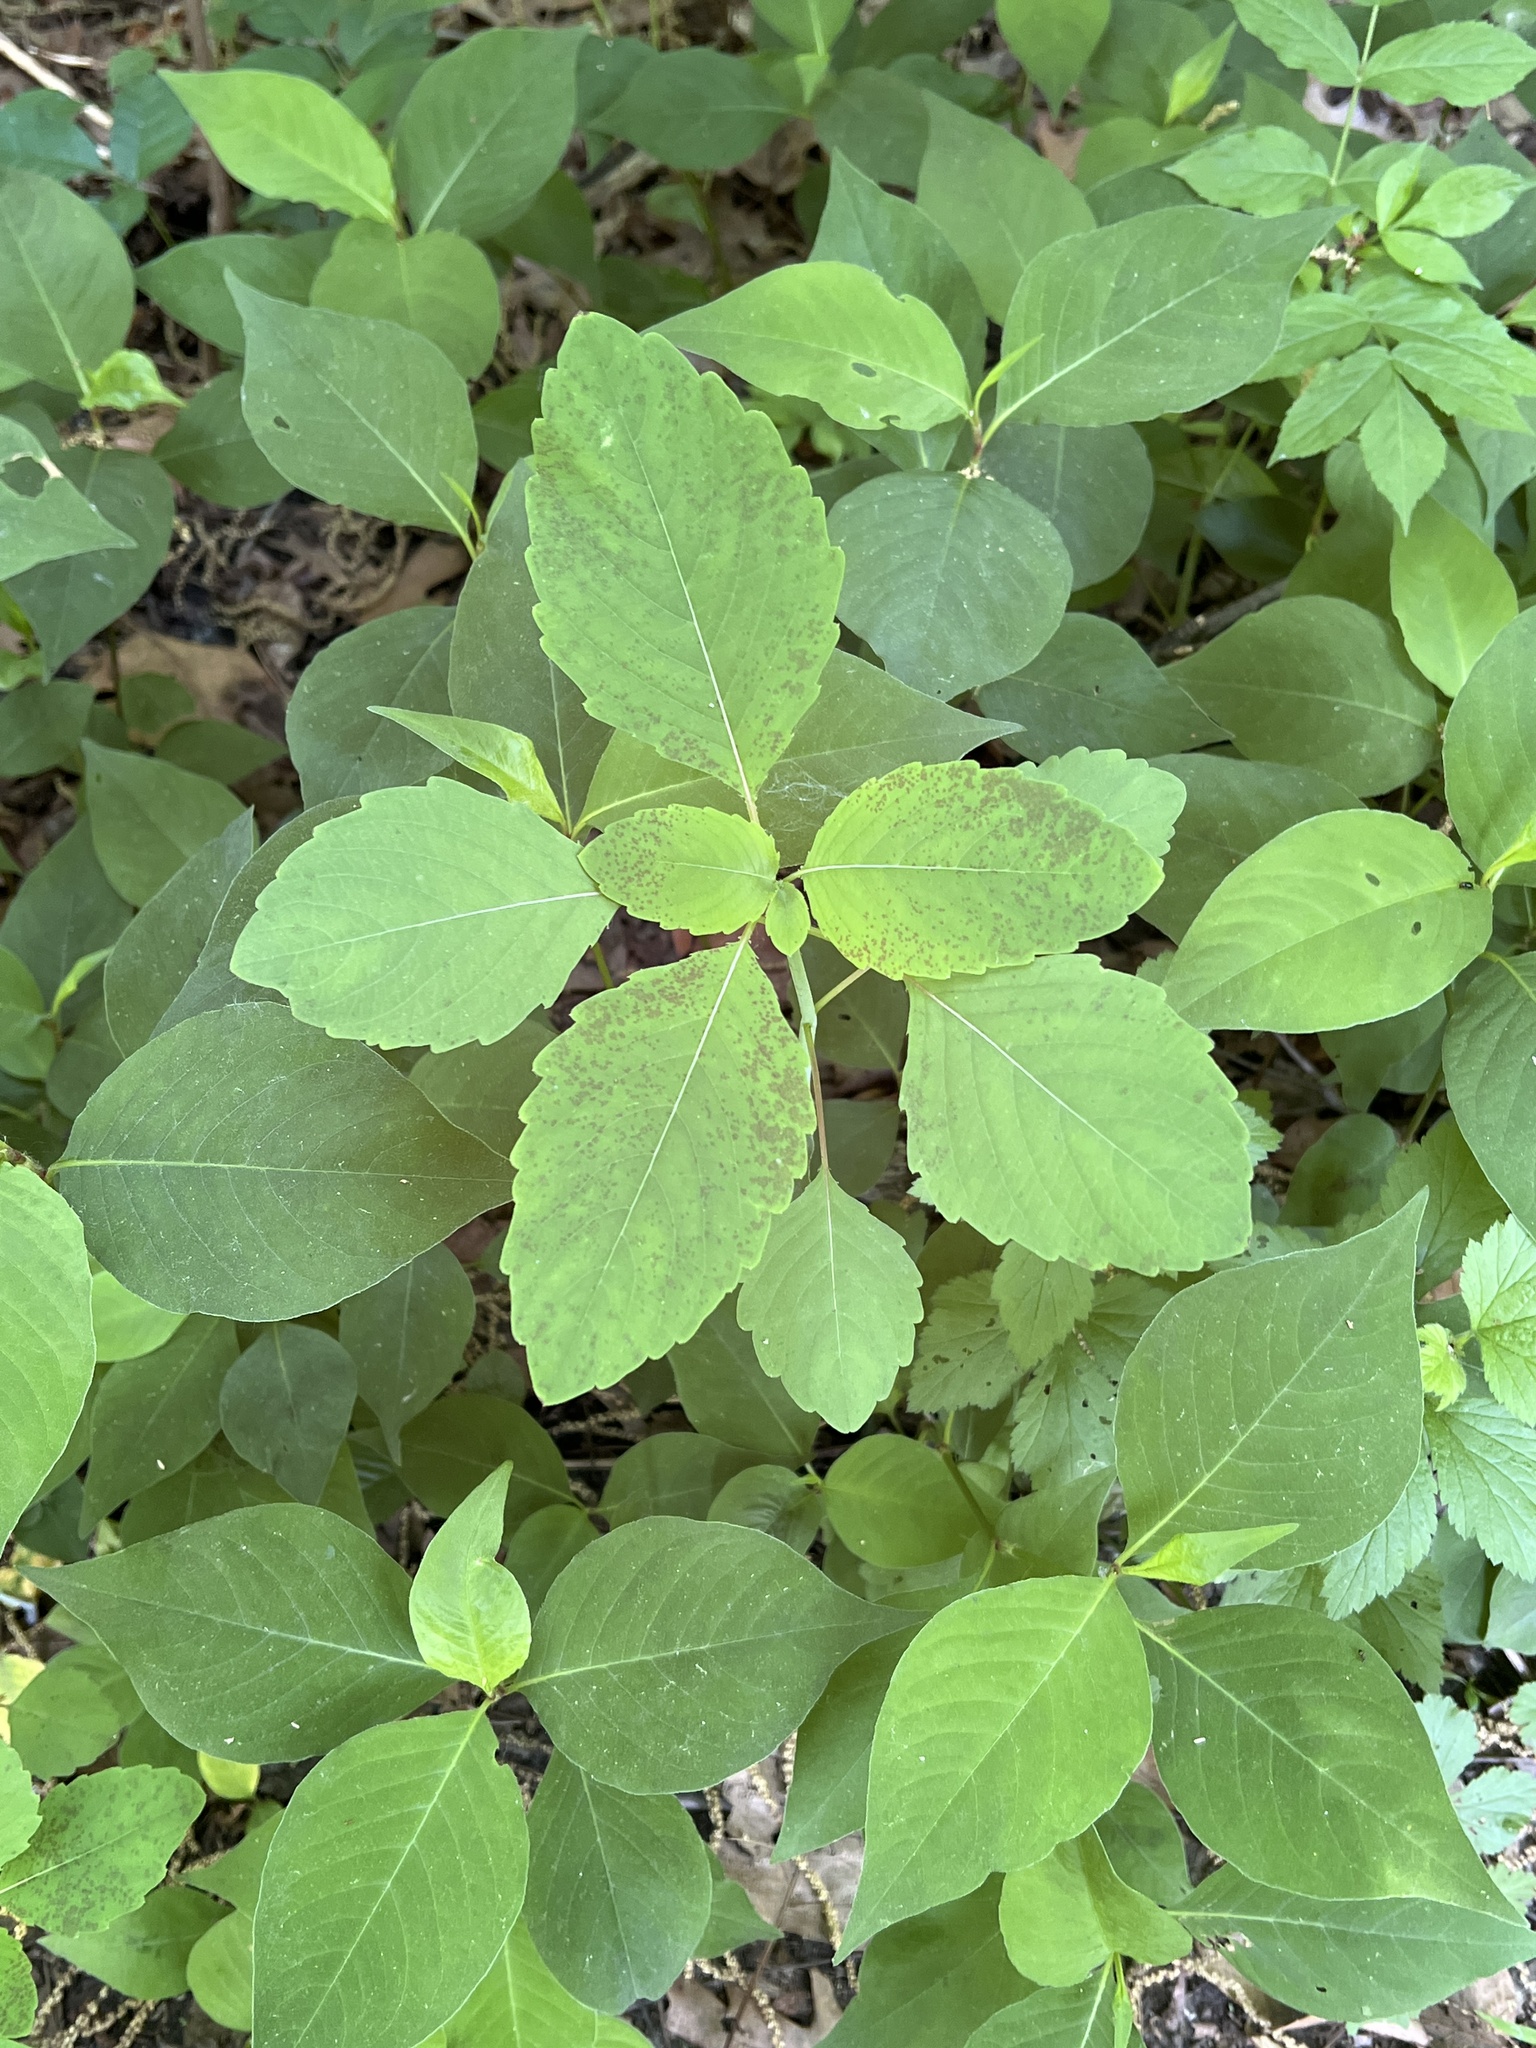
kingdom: Plantae
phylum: Tracheophyta
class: Magnoliopsida
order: Ericales
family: Balsaminaceae
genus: Impatiens
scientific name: Impatiens capensis
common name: Orange balsam
